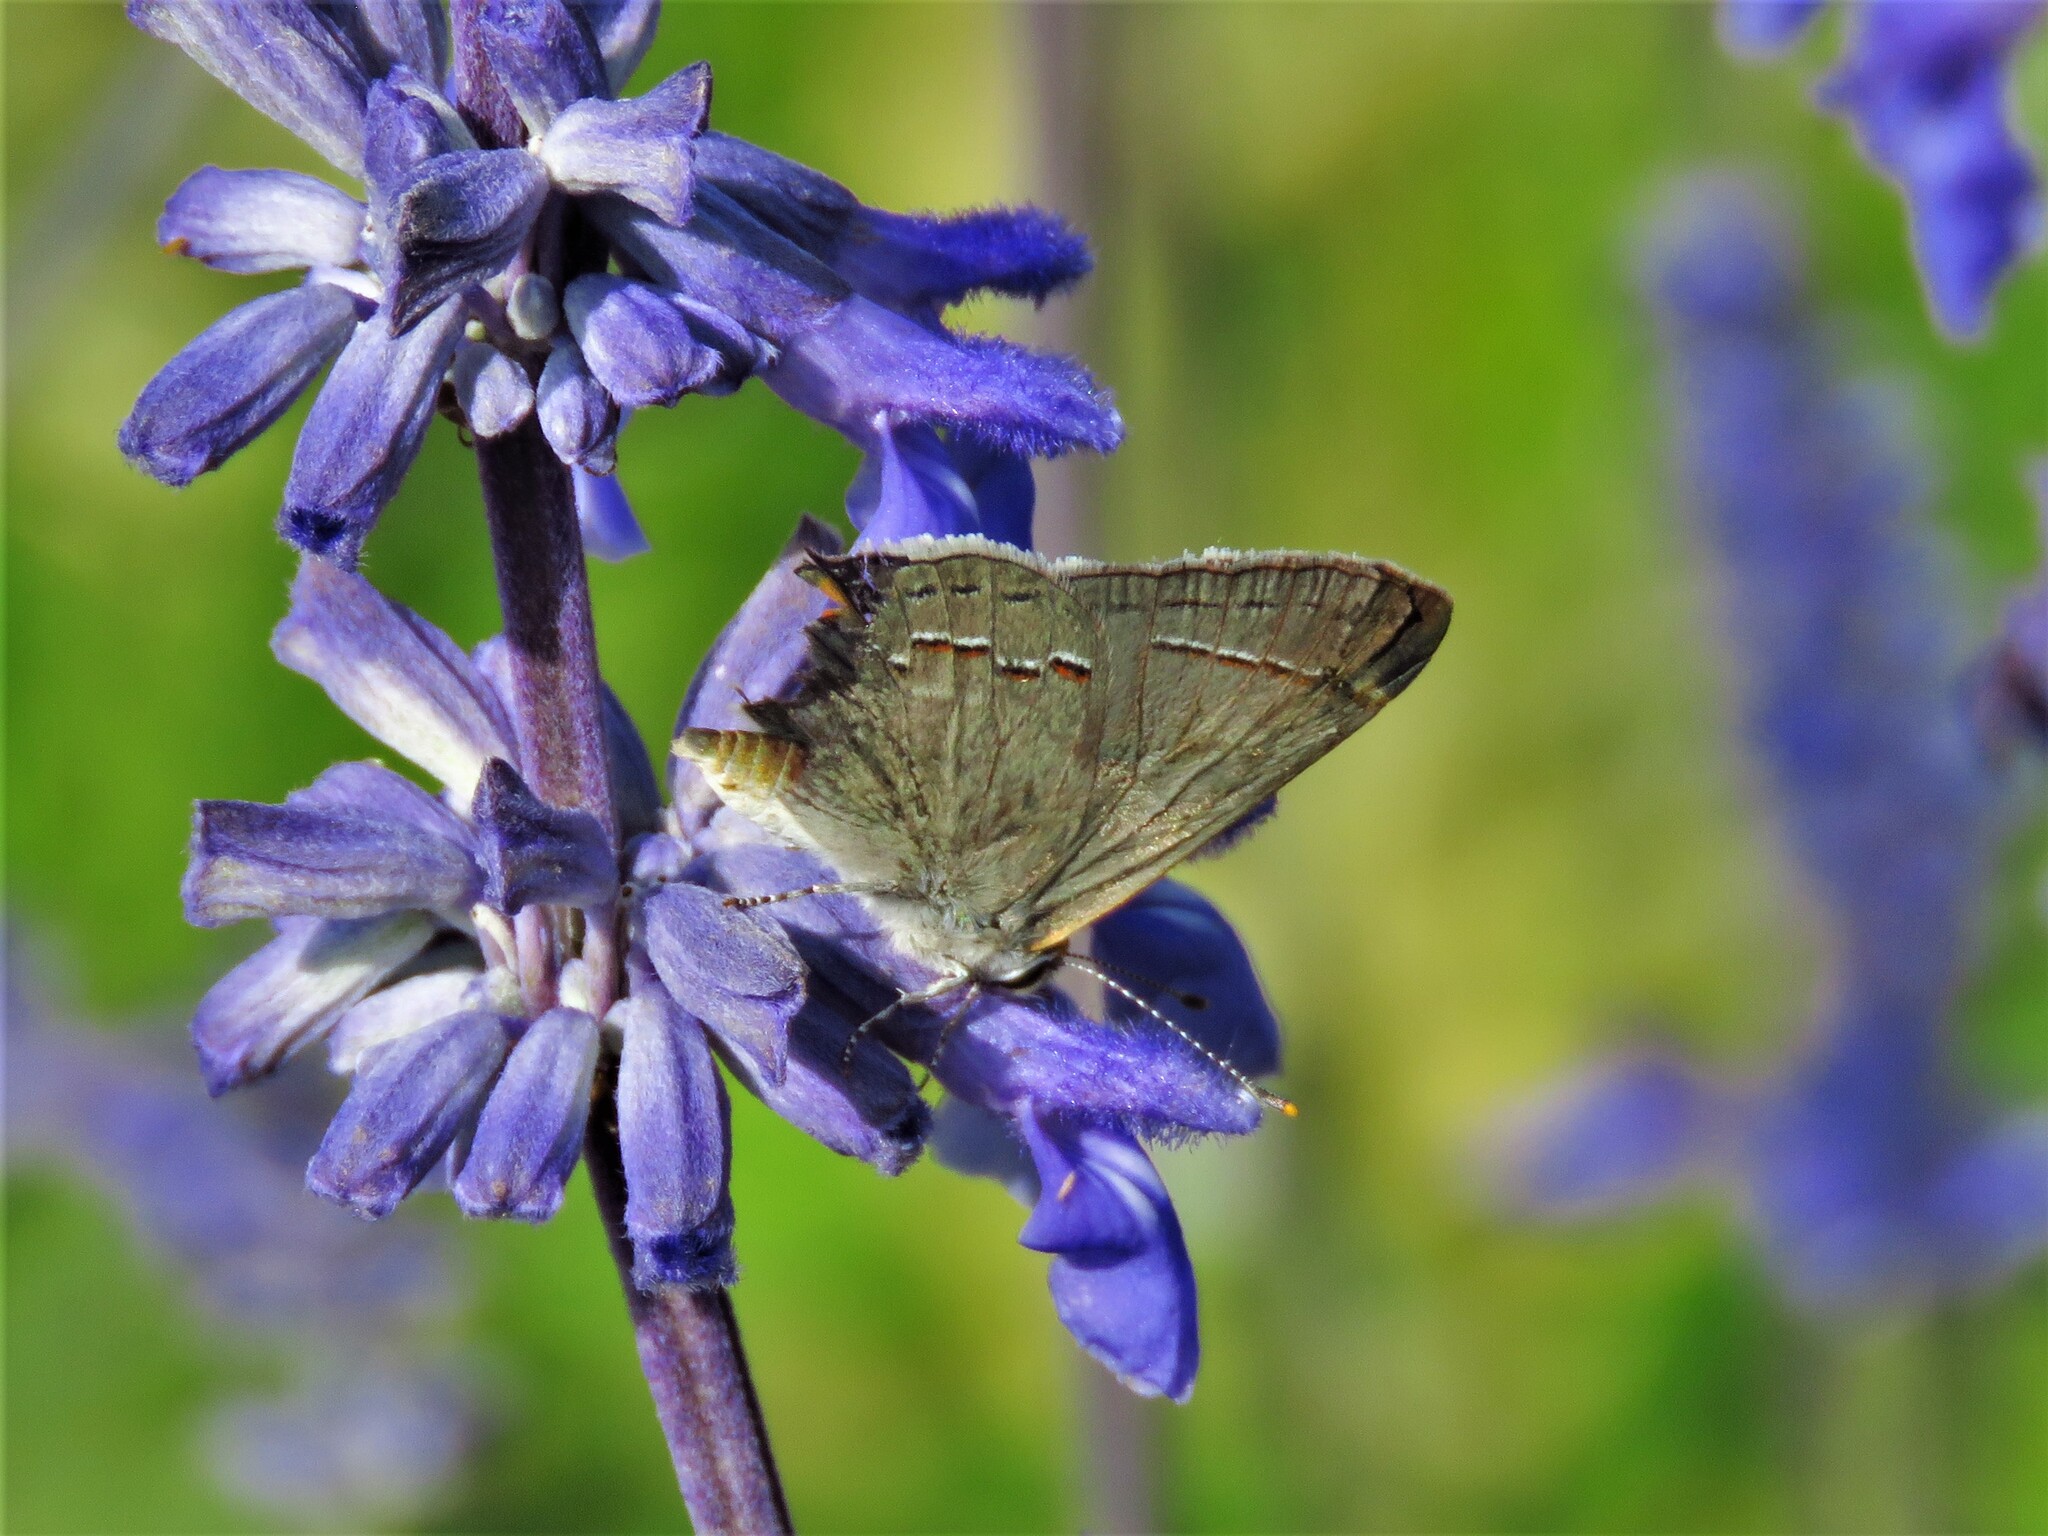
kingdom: Animalia
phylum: Arthropoda
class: Insecta
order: Lepidoptera
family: Lycaenidae
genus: Strymon
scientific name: Strymon melinus
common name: Gray hairstreak
